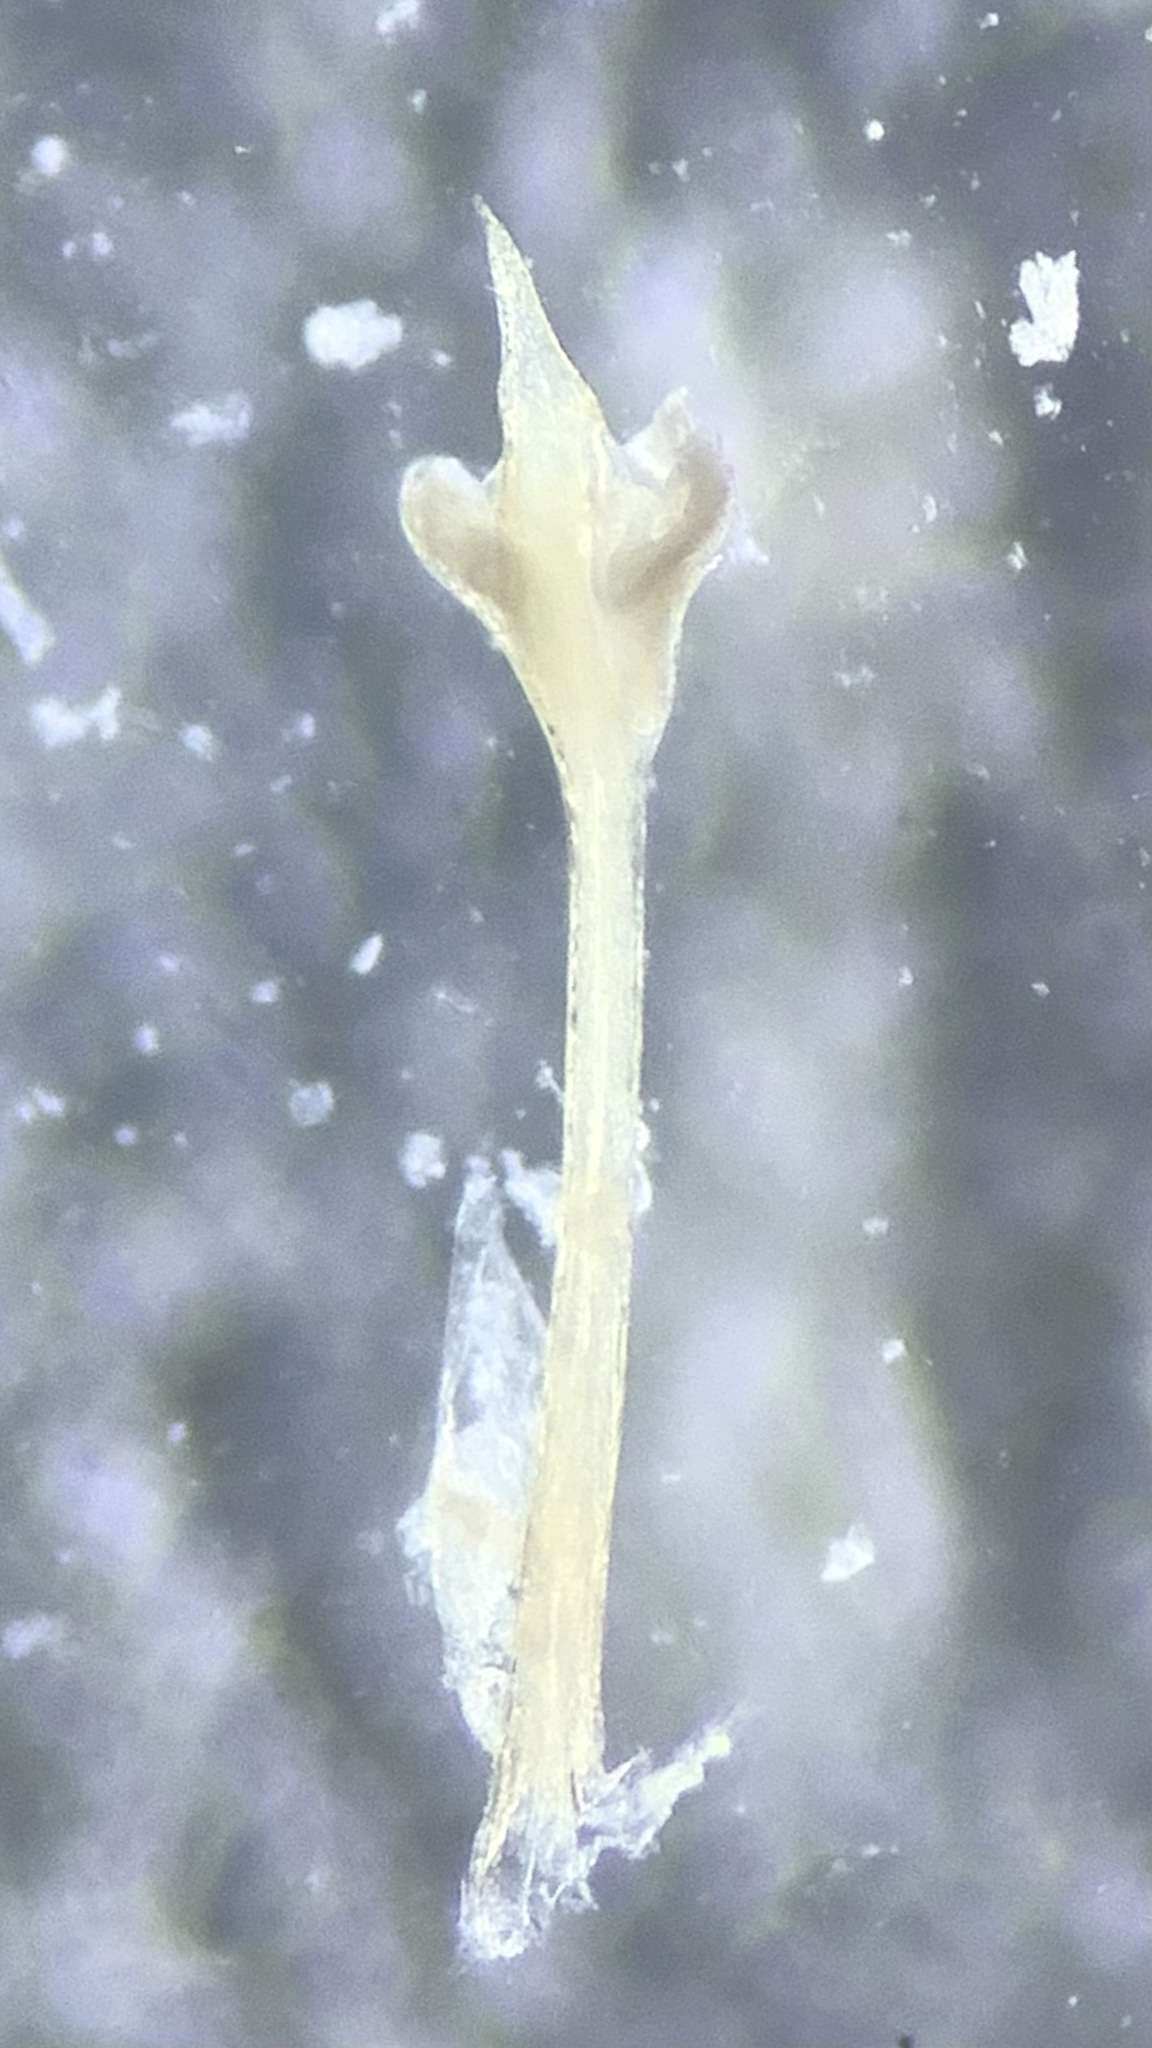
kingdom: Animalia
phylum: Arthropoda
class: Arachnida
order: Opiliones
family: Sclerosomatidae
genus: Nelima
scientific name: Nelima doriae
